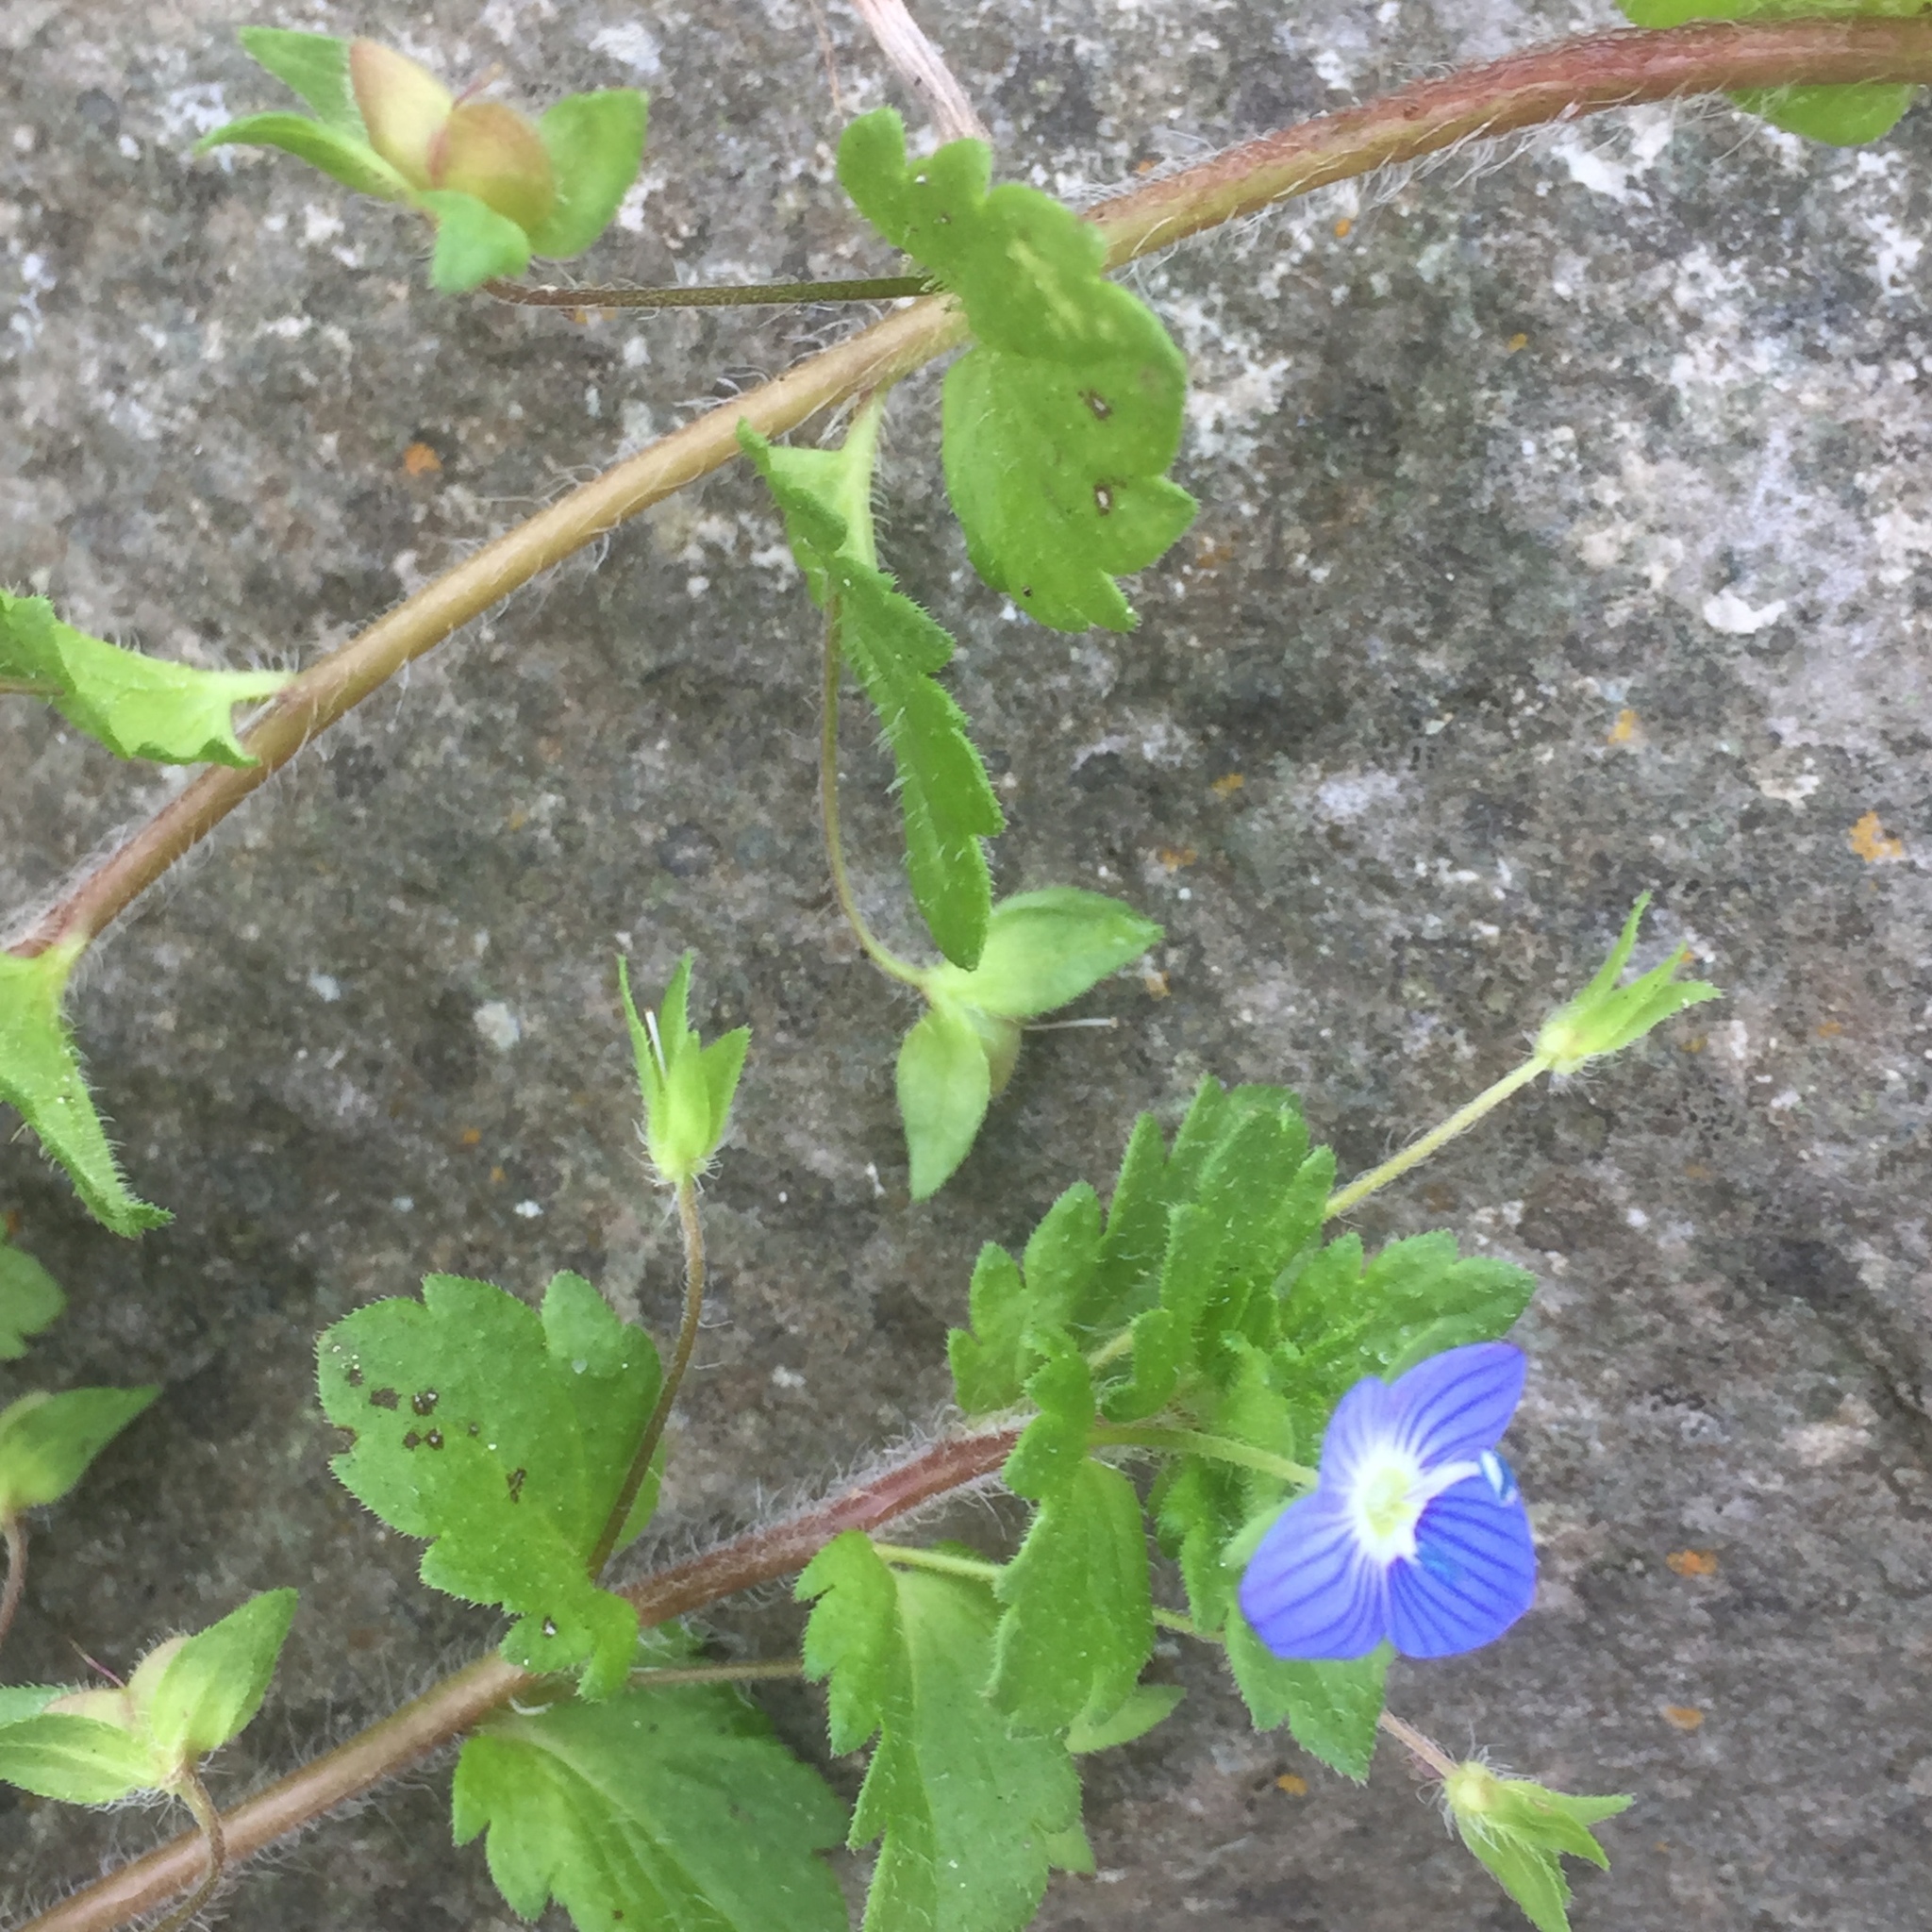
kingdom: Plantae
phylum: Tracheophyta
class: Magnoliopsida
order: Lamiales
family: Plantaginaceae
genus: Veronica
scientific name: Veronica persica
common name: Common field-speedwell
